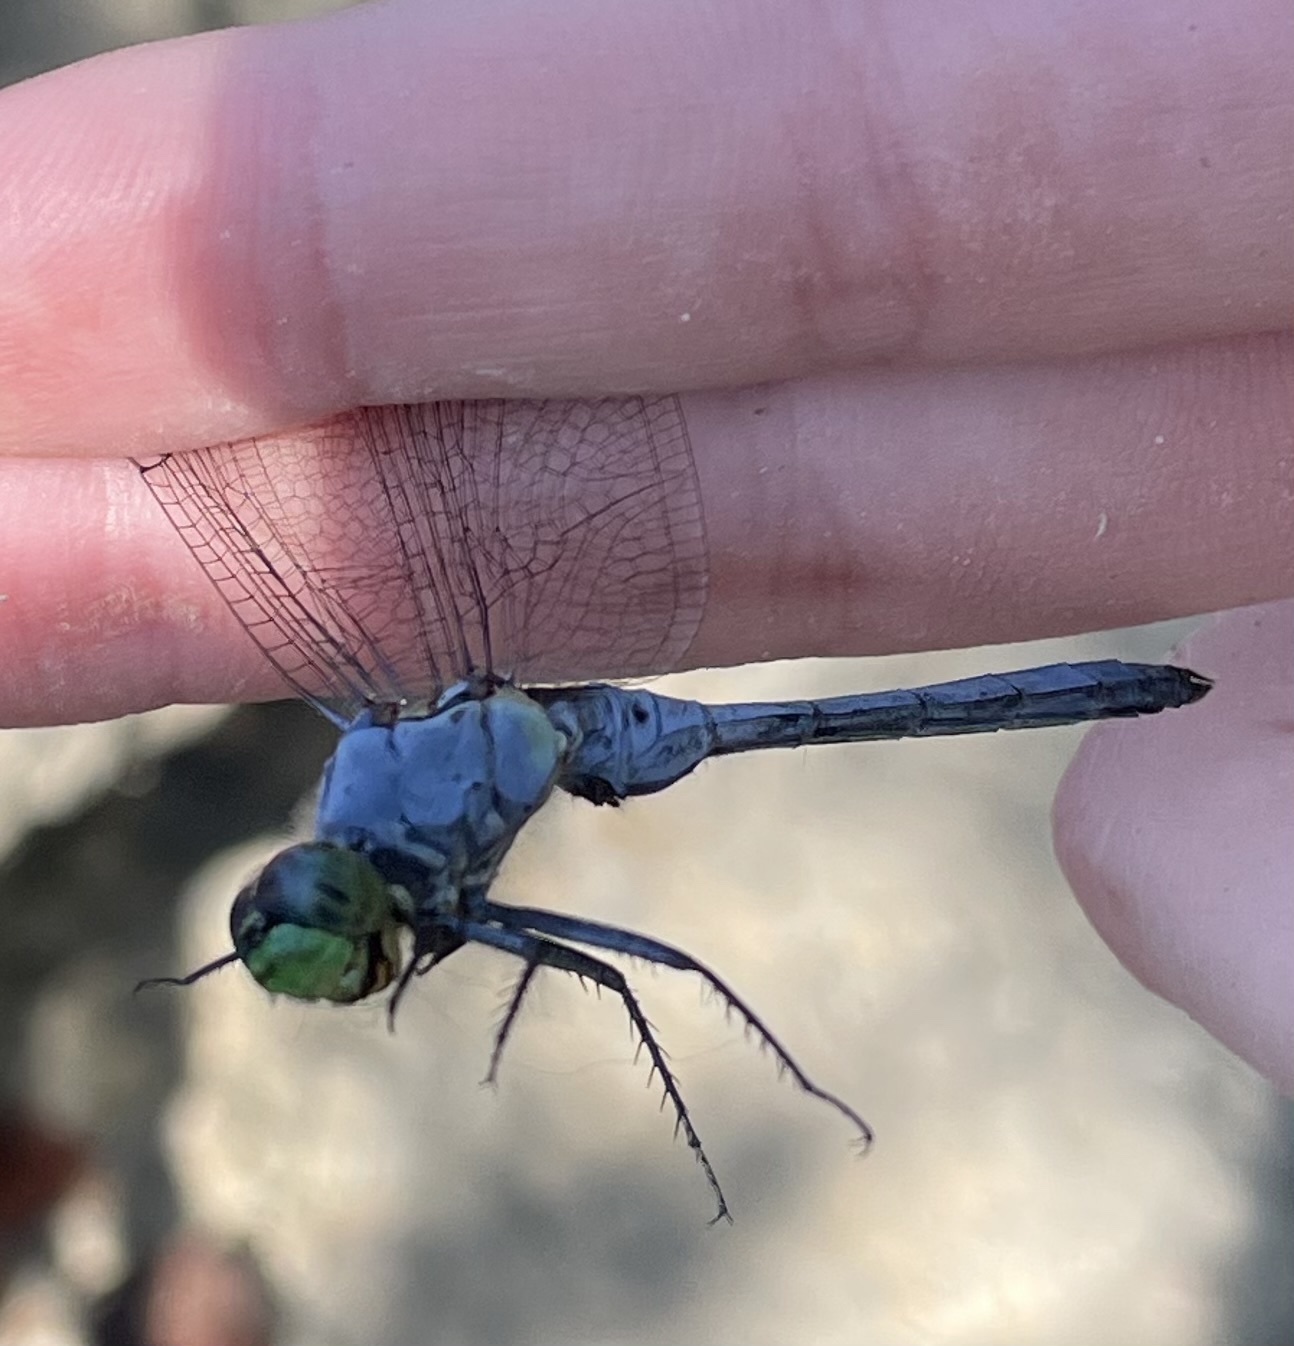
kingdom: Animalia
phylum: Arthropoda
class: Insecta
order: Odonata
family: Libellulidae
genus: Erythemis
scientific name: Erythemis simplicicollis
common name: Eastern pondhawk
